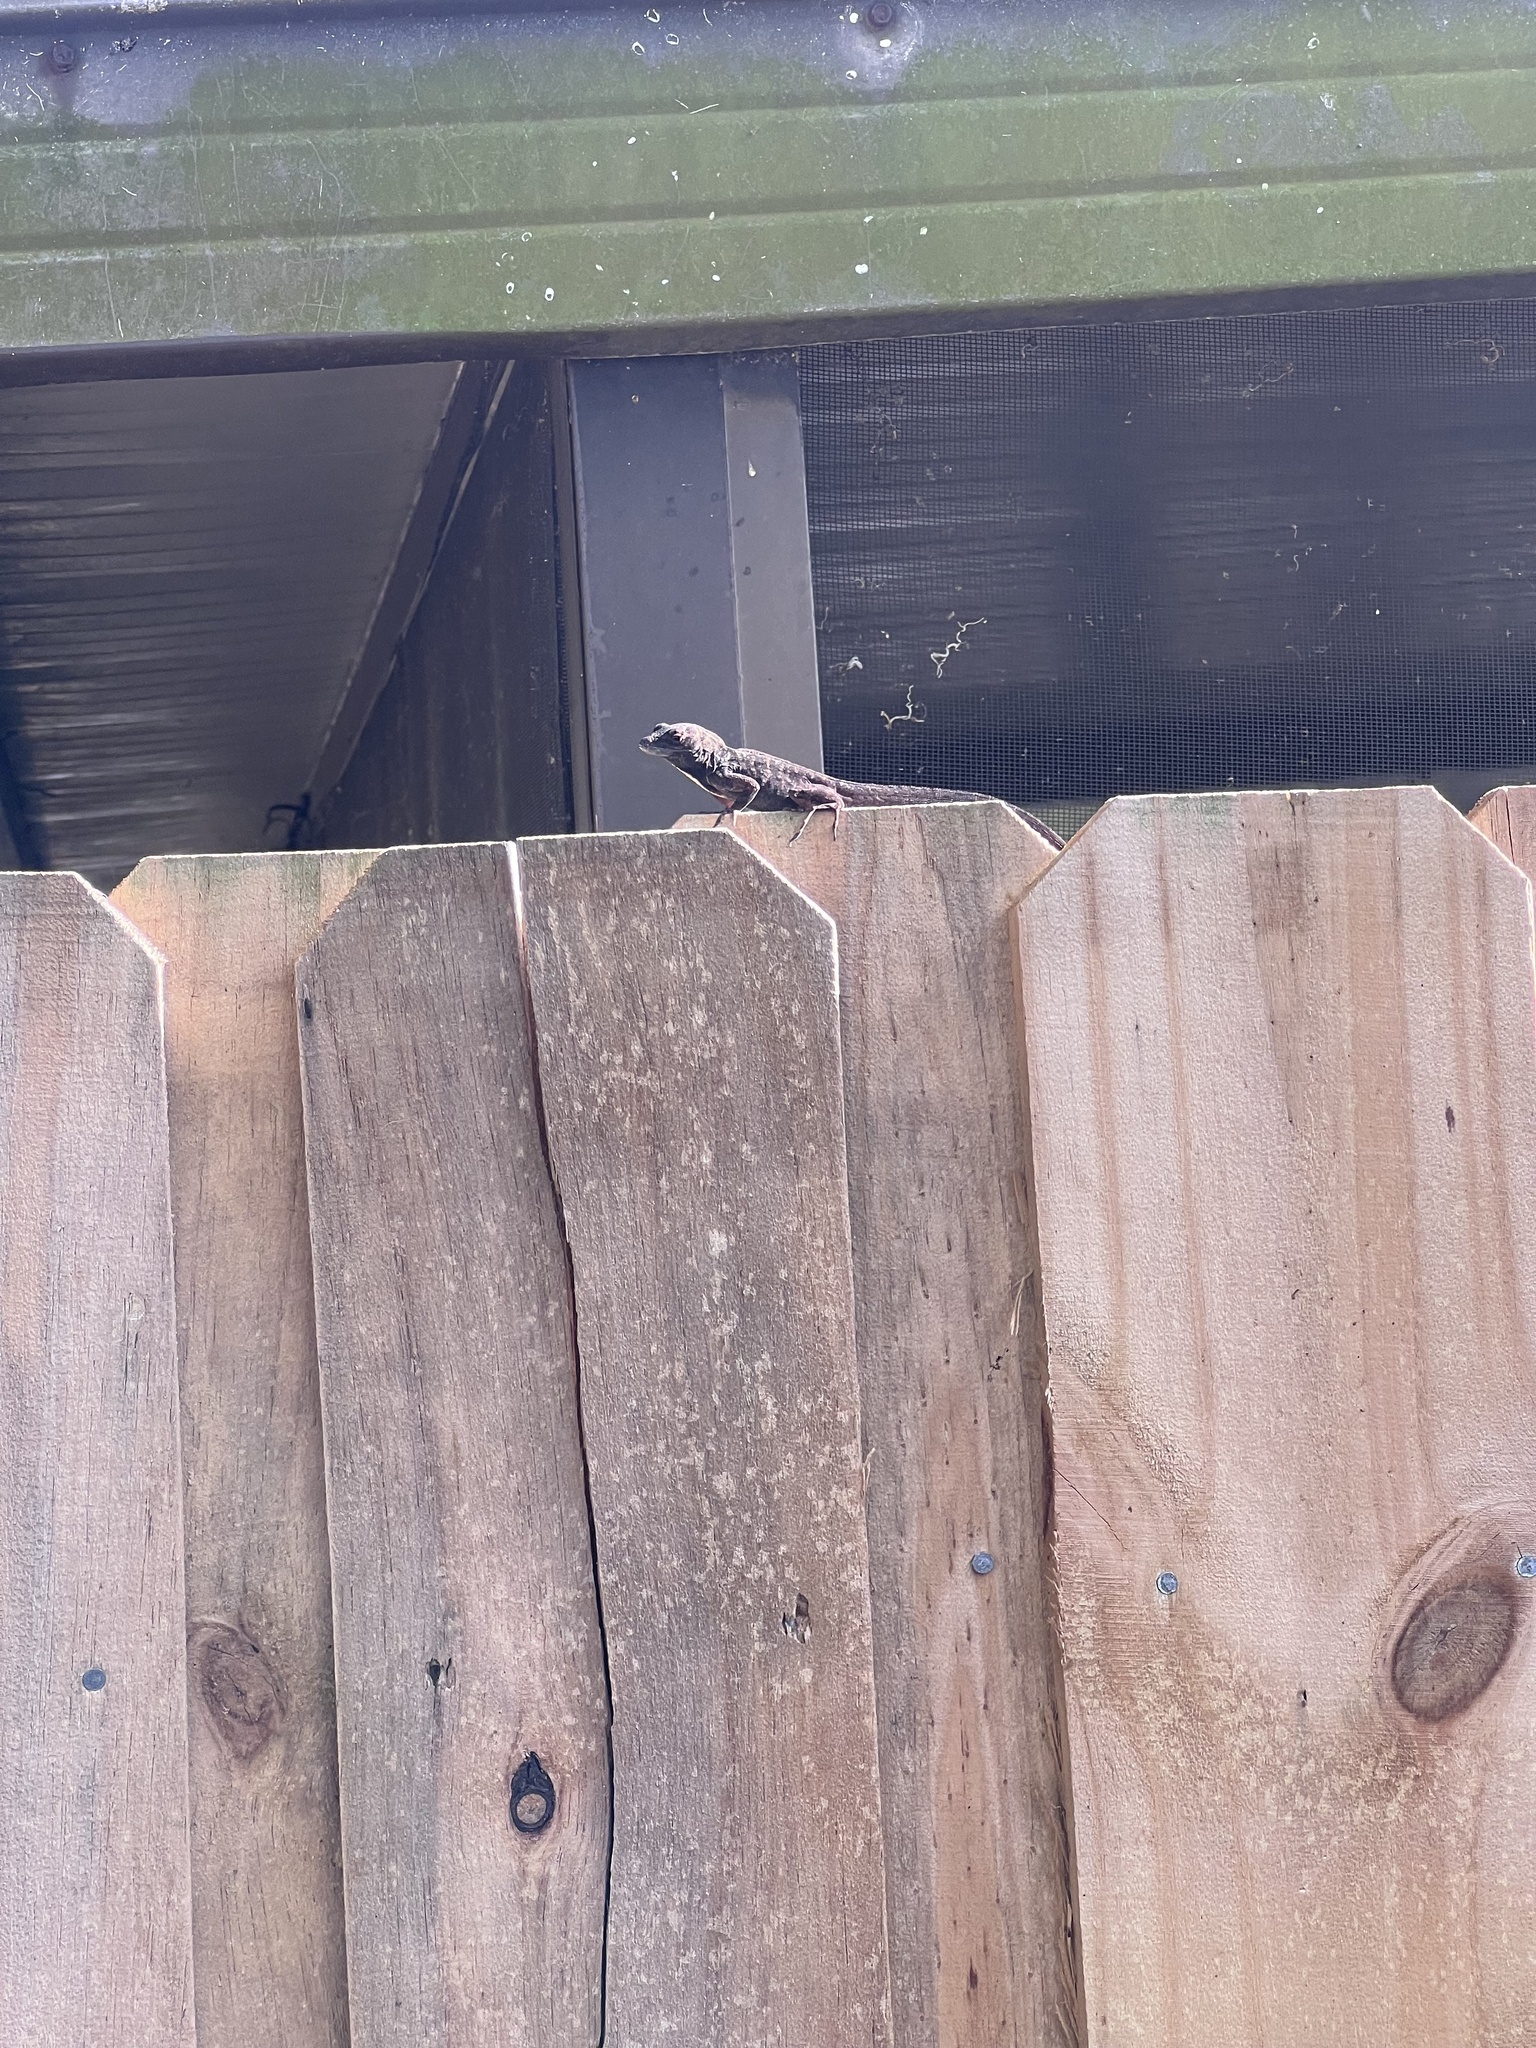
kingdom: Animalia
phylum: Chordata
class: Squamata
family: Dactyloidae
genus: Anolis
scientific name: Anolis sagrei
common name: Brown anole
